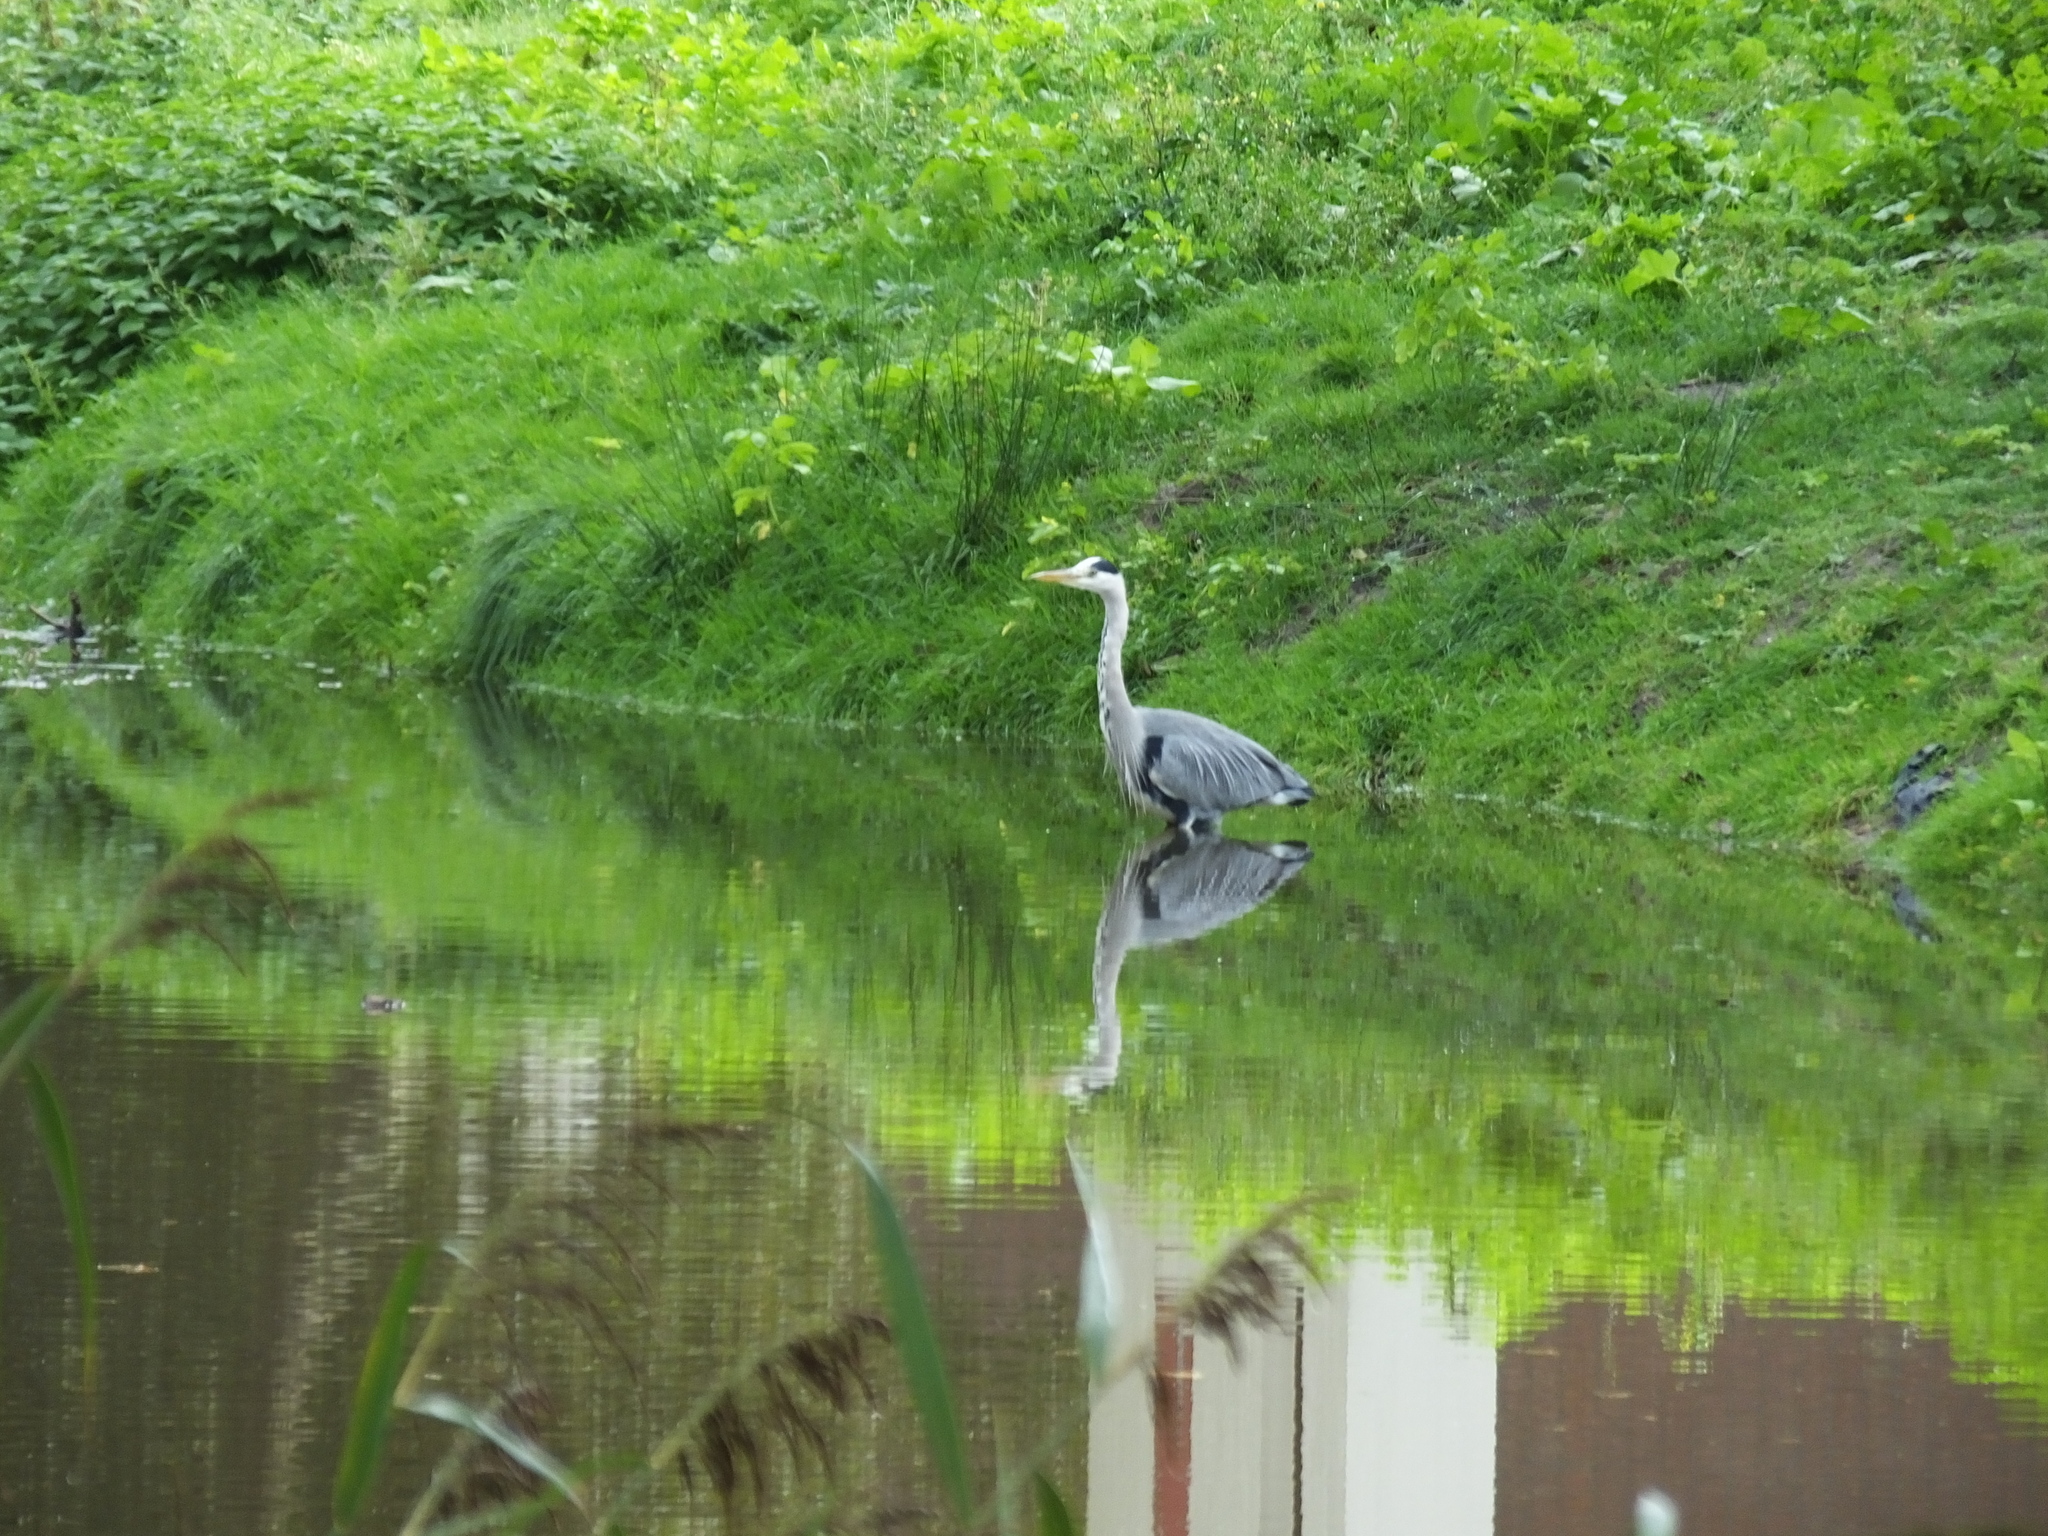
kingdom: Animalia
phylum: Chordata
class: Aves
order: Pelecaniformes
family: Ardeidae
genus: Ardea
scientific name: Ardea cinerea
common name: Grey heron
